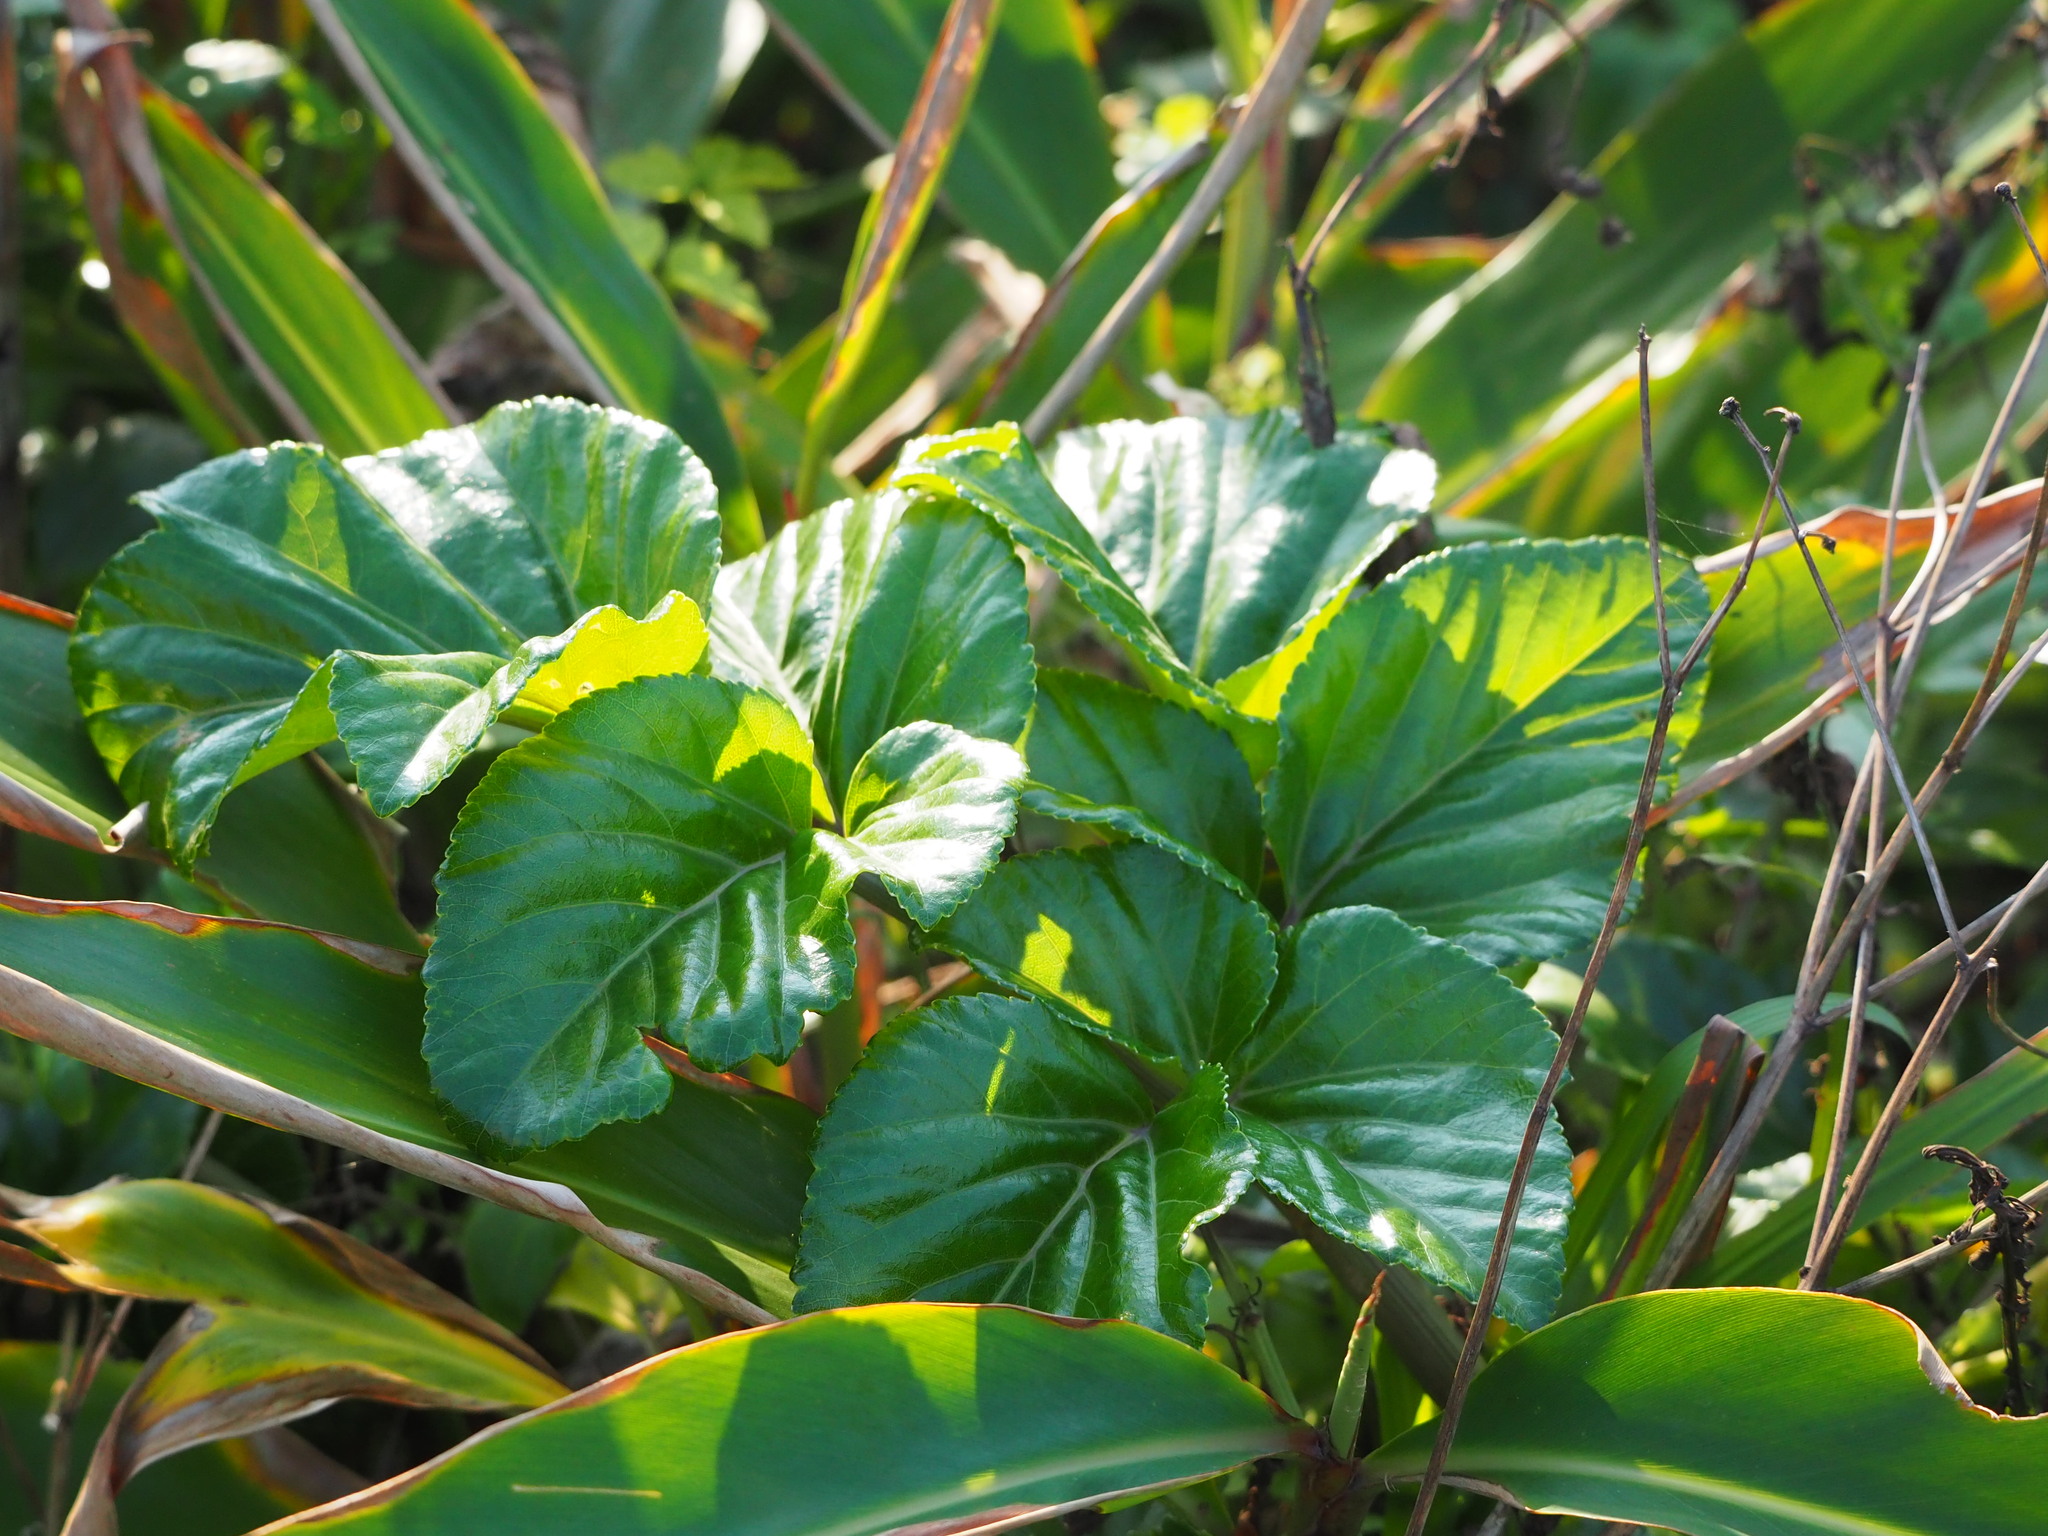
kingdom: Plantae
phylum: Tracheophyta
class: Magnoliopsida
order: Apiales
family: Apiaceae
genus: Angelica
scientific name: Angelica hirsutiflora
